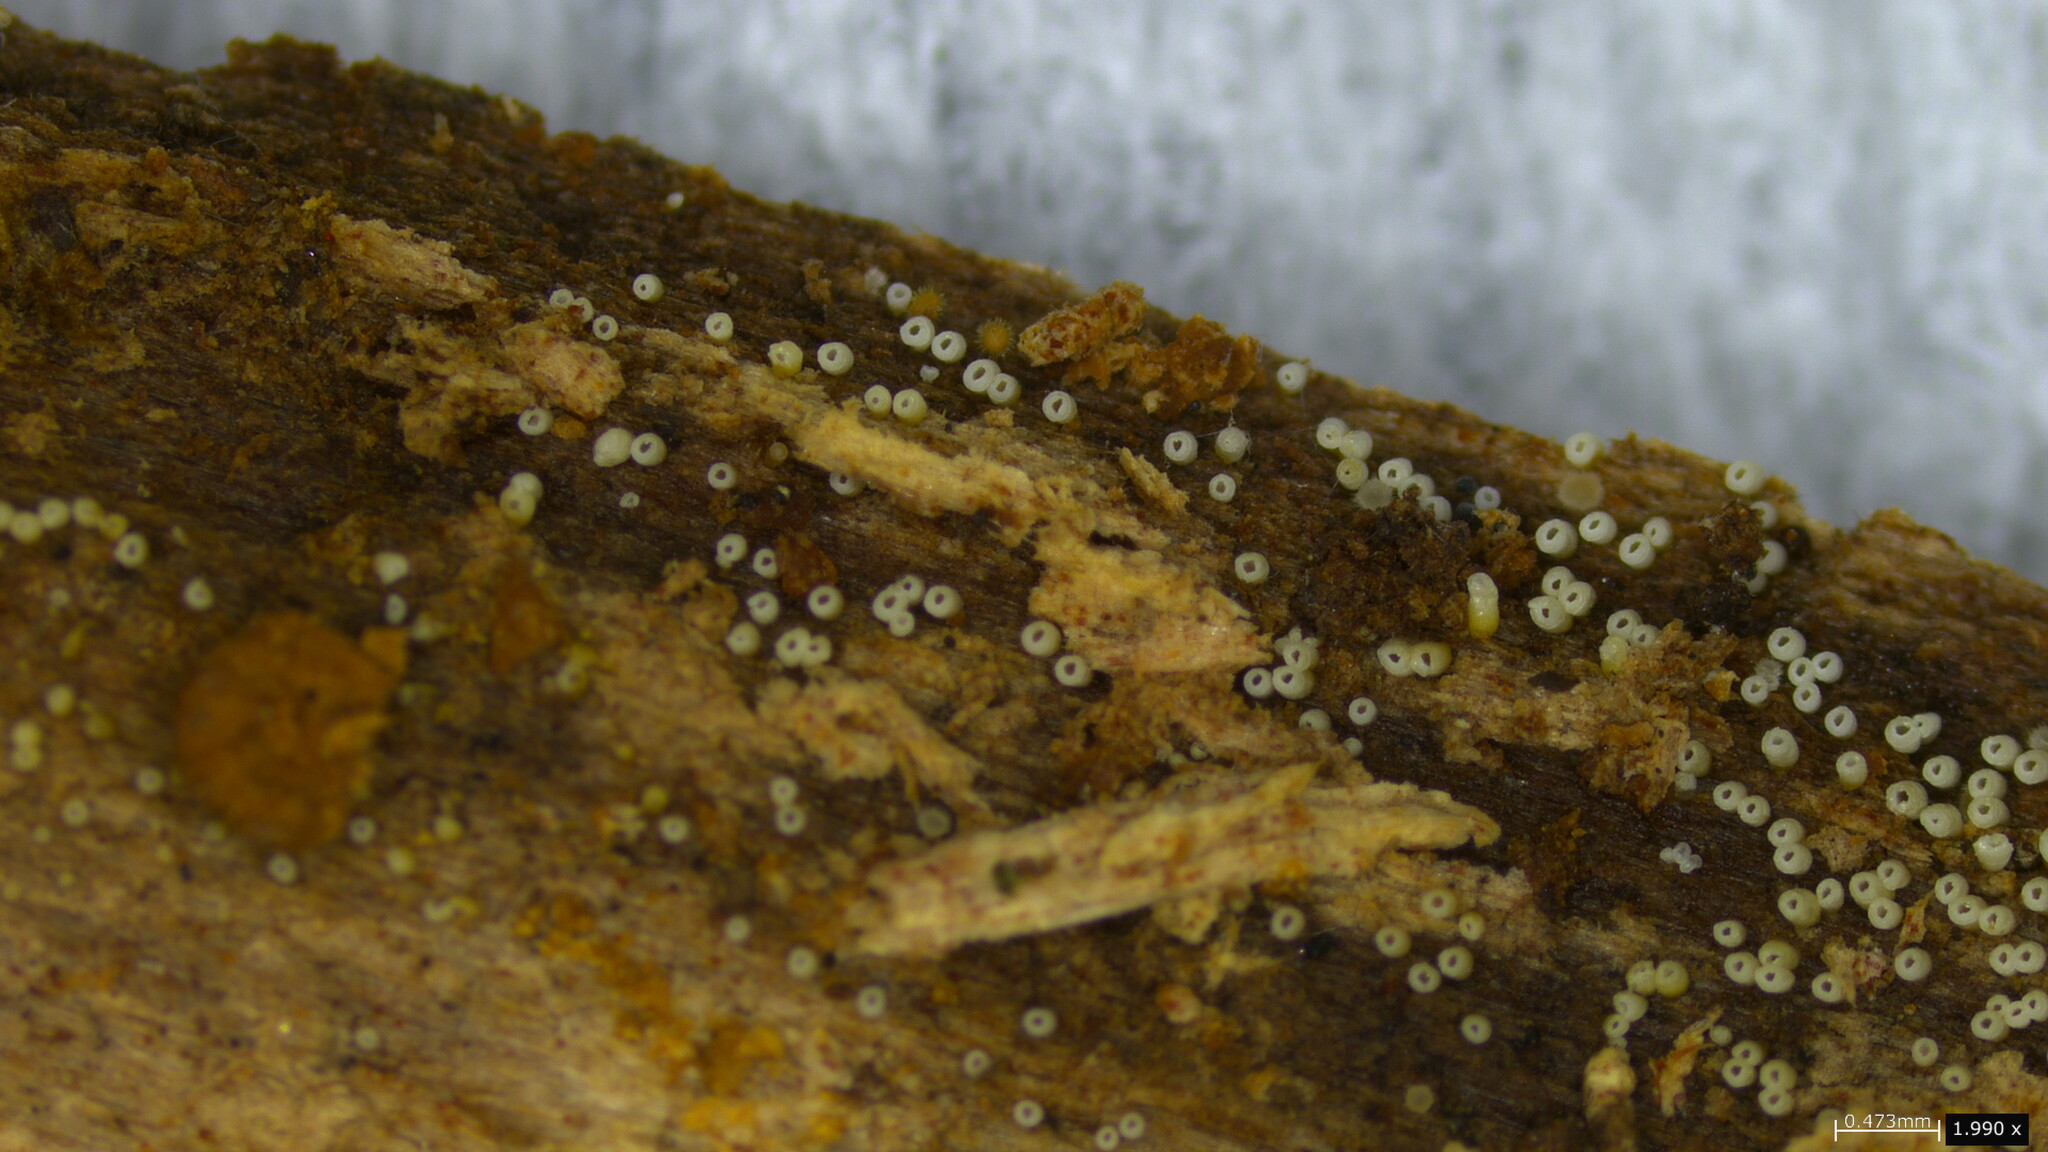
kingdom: Fungi
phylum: Basidiomycota
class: Agaricomycetes
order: Agaricales
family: Marasmiaceae
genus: Henningsomyces
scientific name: Henningsomyces candidus
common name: White tubelet
